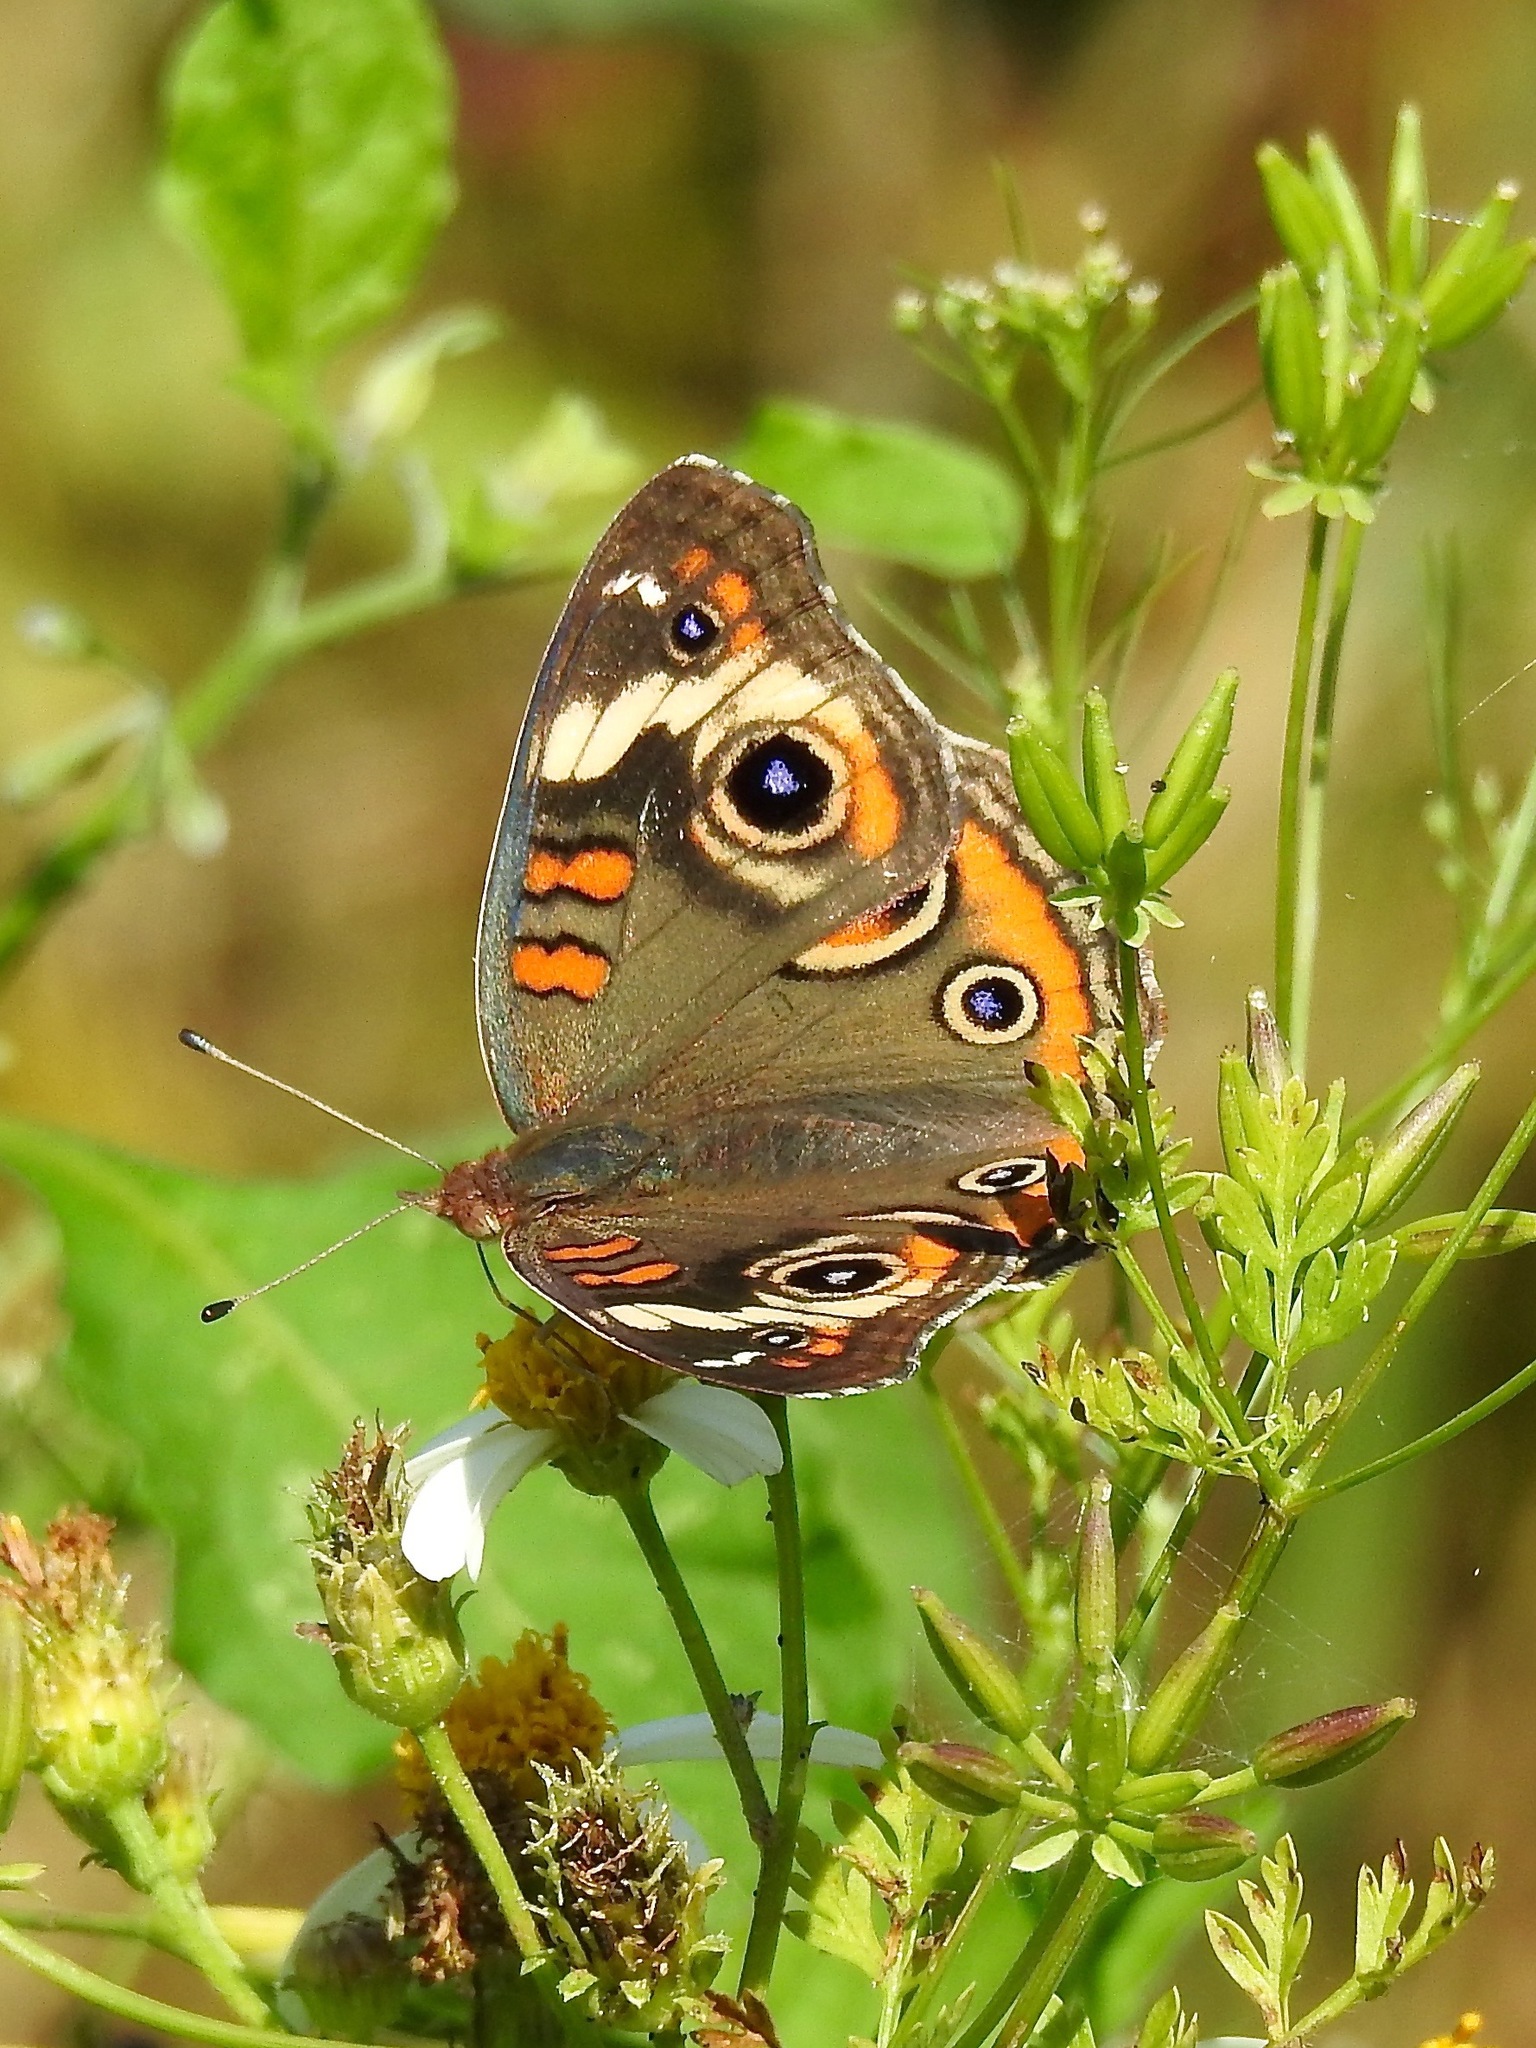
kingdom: Animalia
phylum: Arthropoda
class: Insecta
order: Lepidoptera
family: Nymphalidae
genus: Junonia
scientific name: Junonia coenia
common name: Common buckeye
